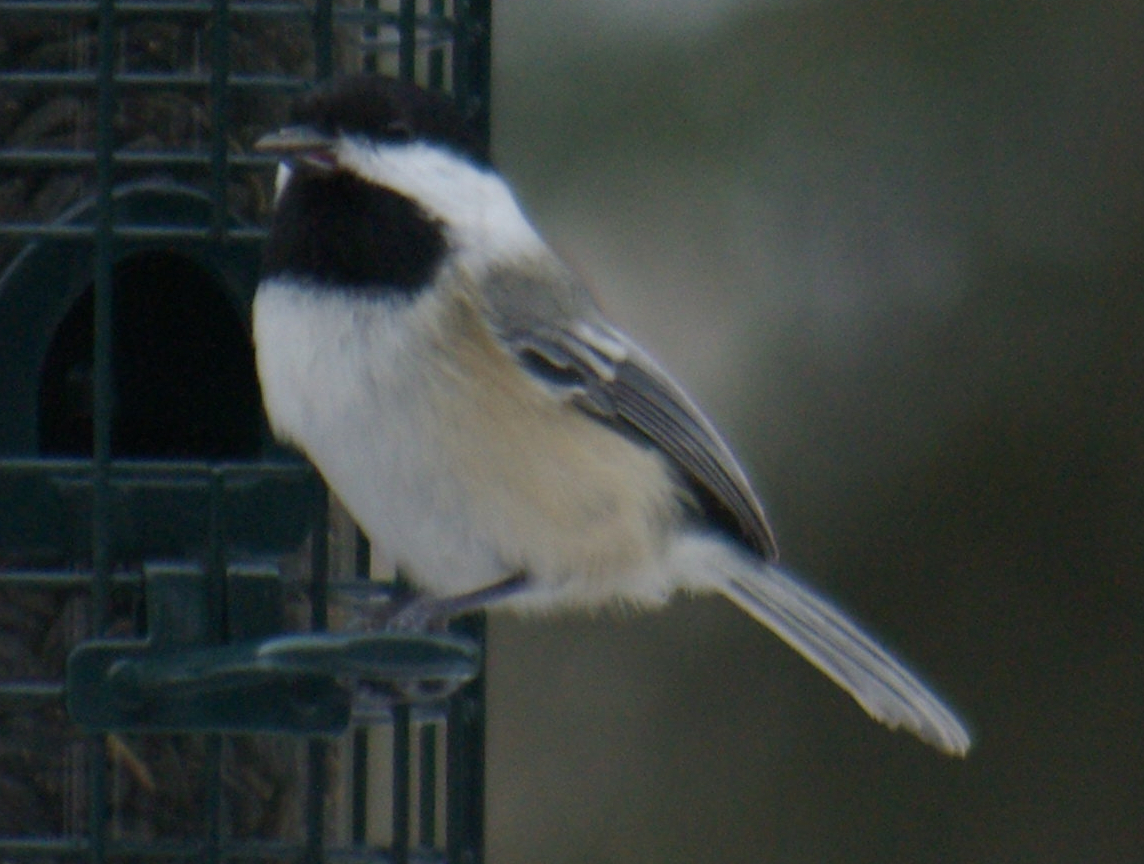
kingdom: Animalia
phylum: Chordata
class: Aves
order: Passeriformes
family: Paridae
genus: Poecile
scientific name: Poecile atricapillus
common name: Black-capped chickadee
